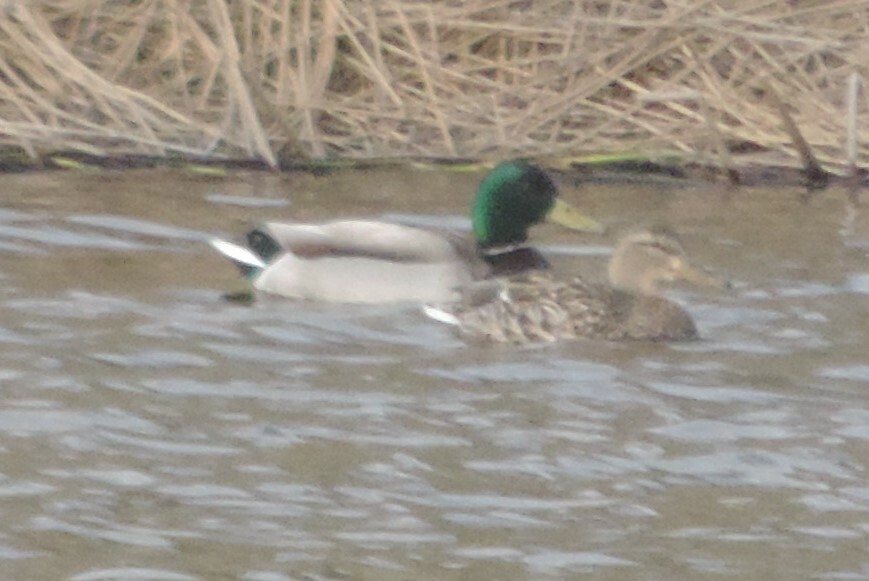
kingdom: Animalia
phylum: Chordata
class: Aves
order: Anseriformes
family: Anatidae
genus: Anas
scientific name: Anas platyrhynchos
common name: Mallard
